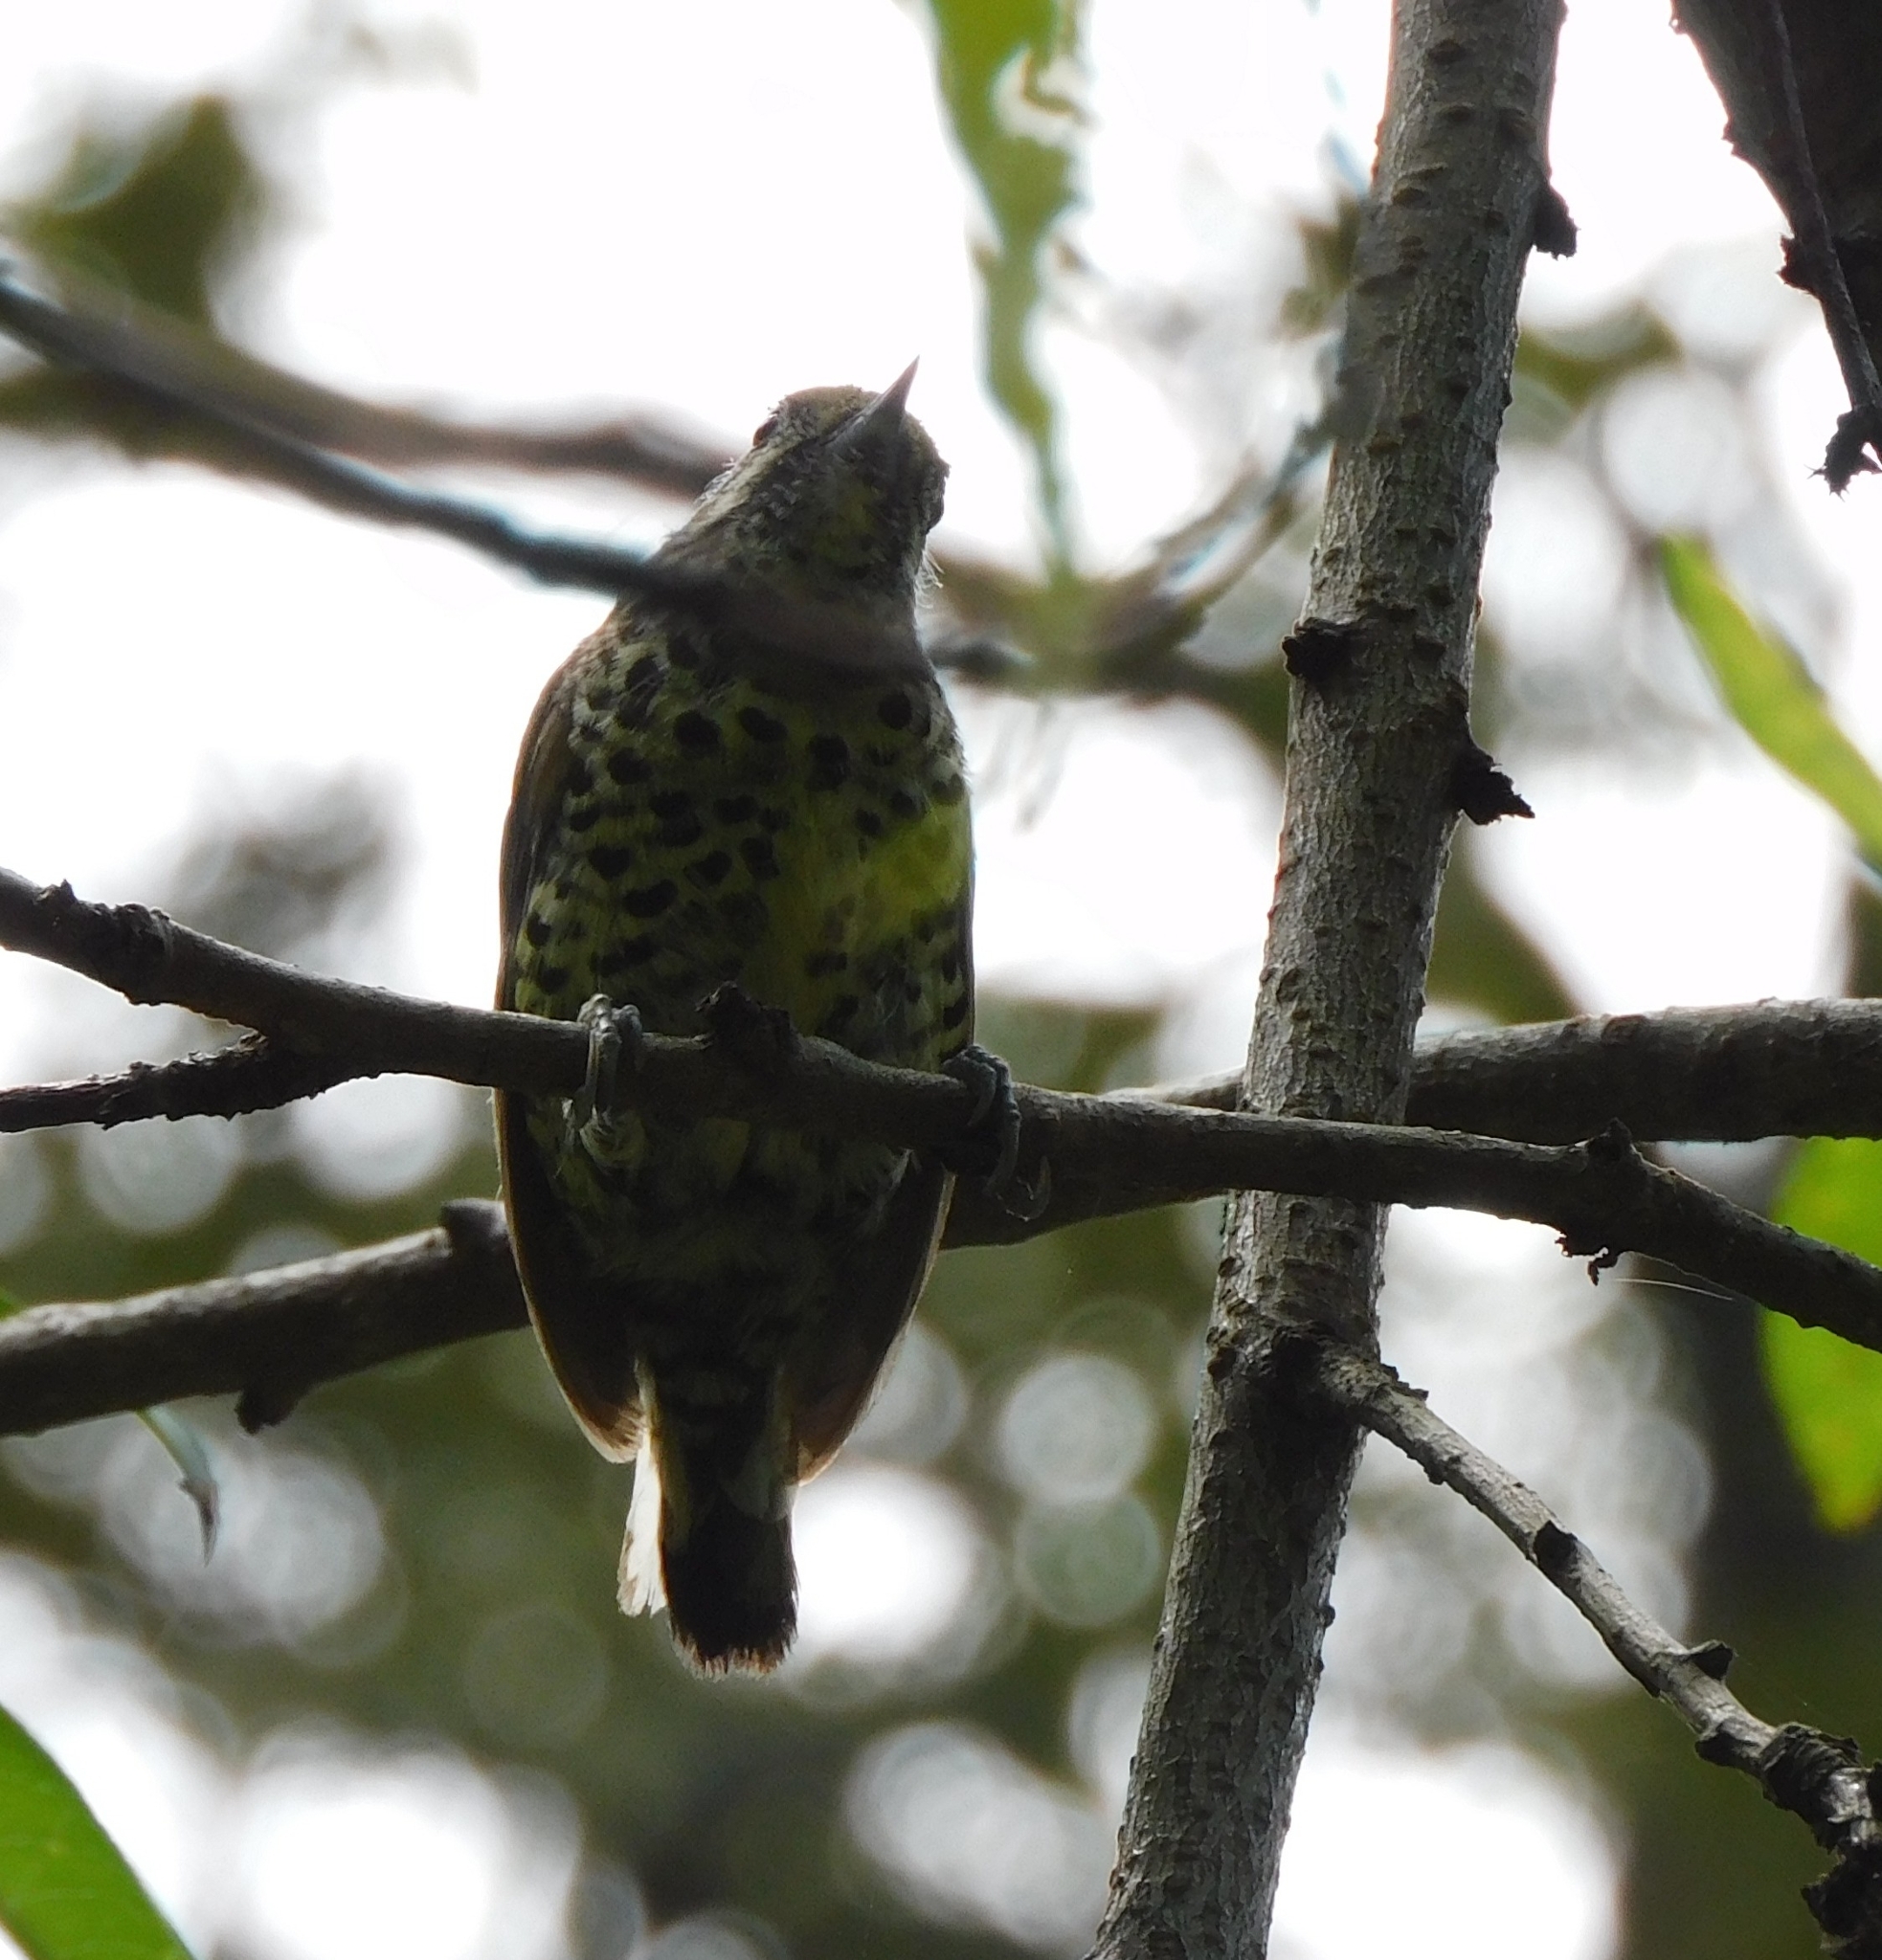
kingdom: Animalia
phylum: Chordata
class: Aves
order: Piciformes
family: Picidae
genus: Picumnus
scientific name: Picumnus innominatus
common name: Speckled piculet
